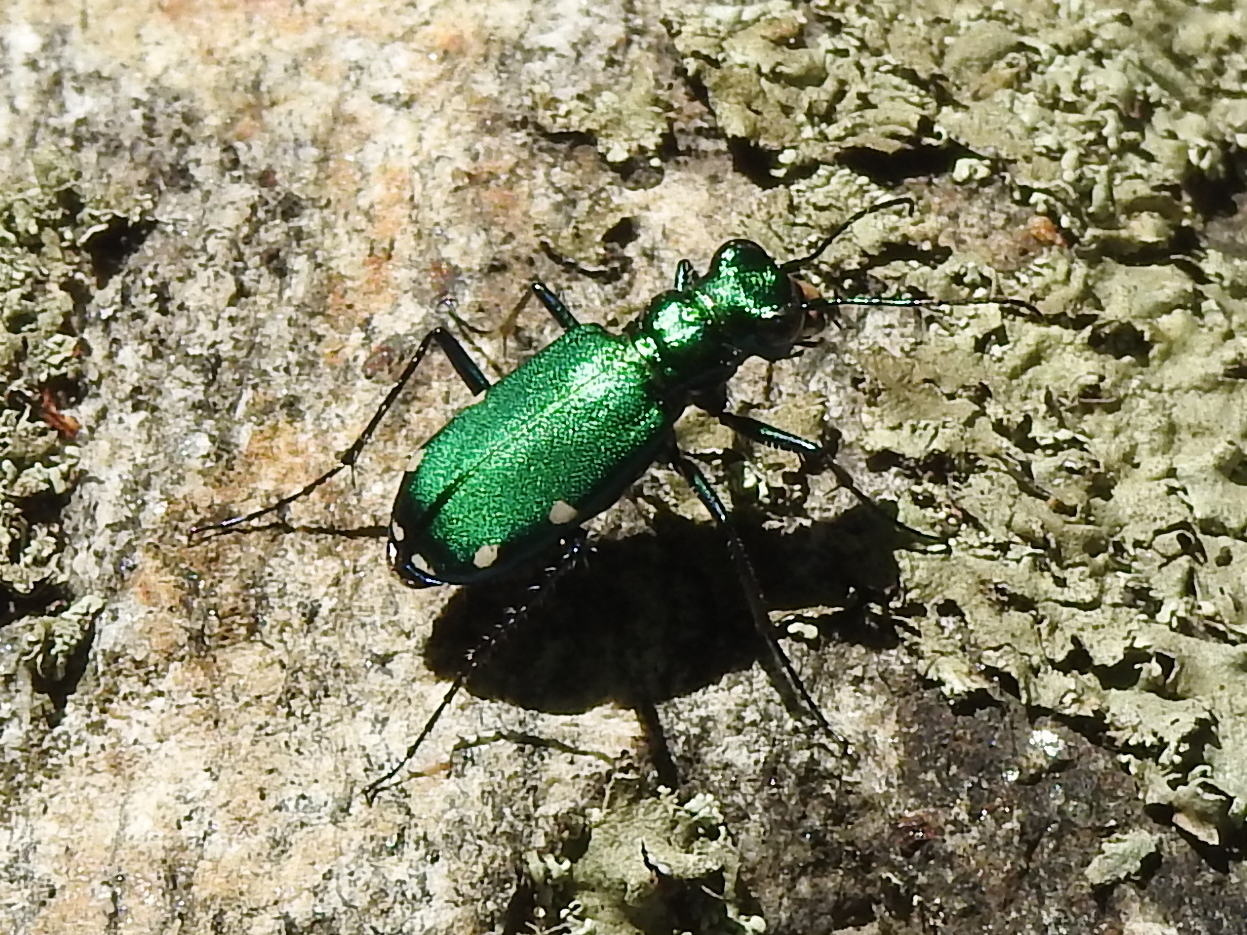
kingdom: Animalia
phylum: Arthropoda
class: Insecta
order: Coleoptera
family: Carabidae
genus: Cicindela
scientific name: Cicindela sexguttata
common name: Six-spotted tiger beetle
